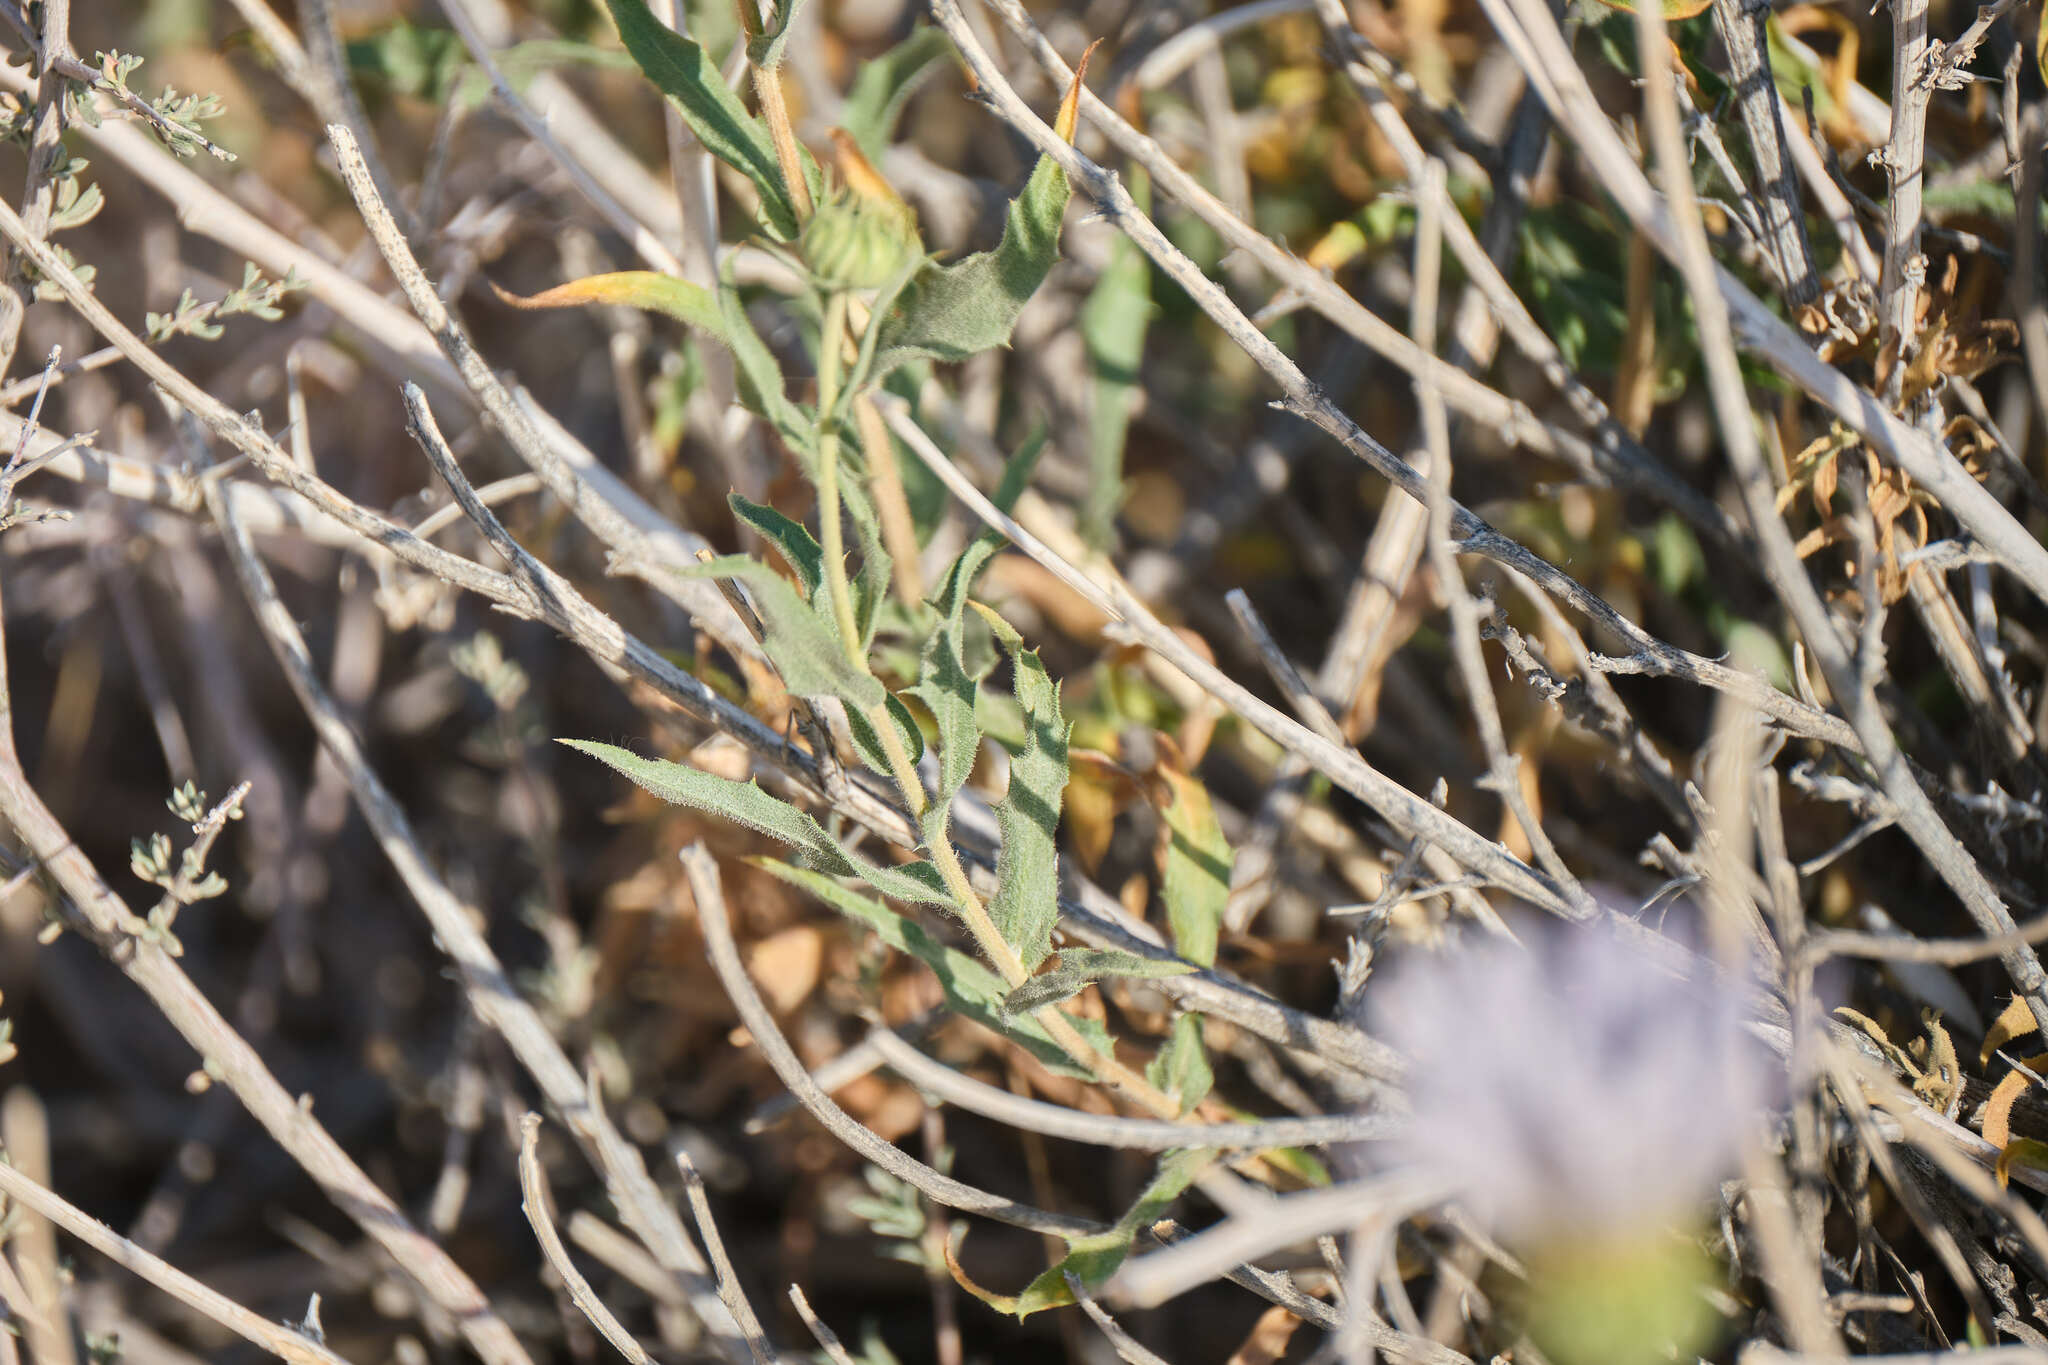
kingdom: Plantae
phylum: Tracheophyta
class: Magnoliopsida
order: Asterales
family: Asteraceae
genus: Xylorhiza
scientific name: Xylorhiza tortifolia
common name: Hurt-leaf woody-aster
